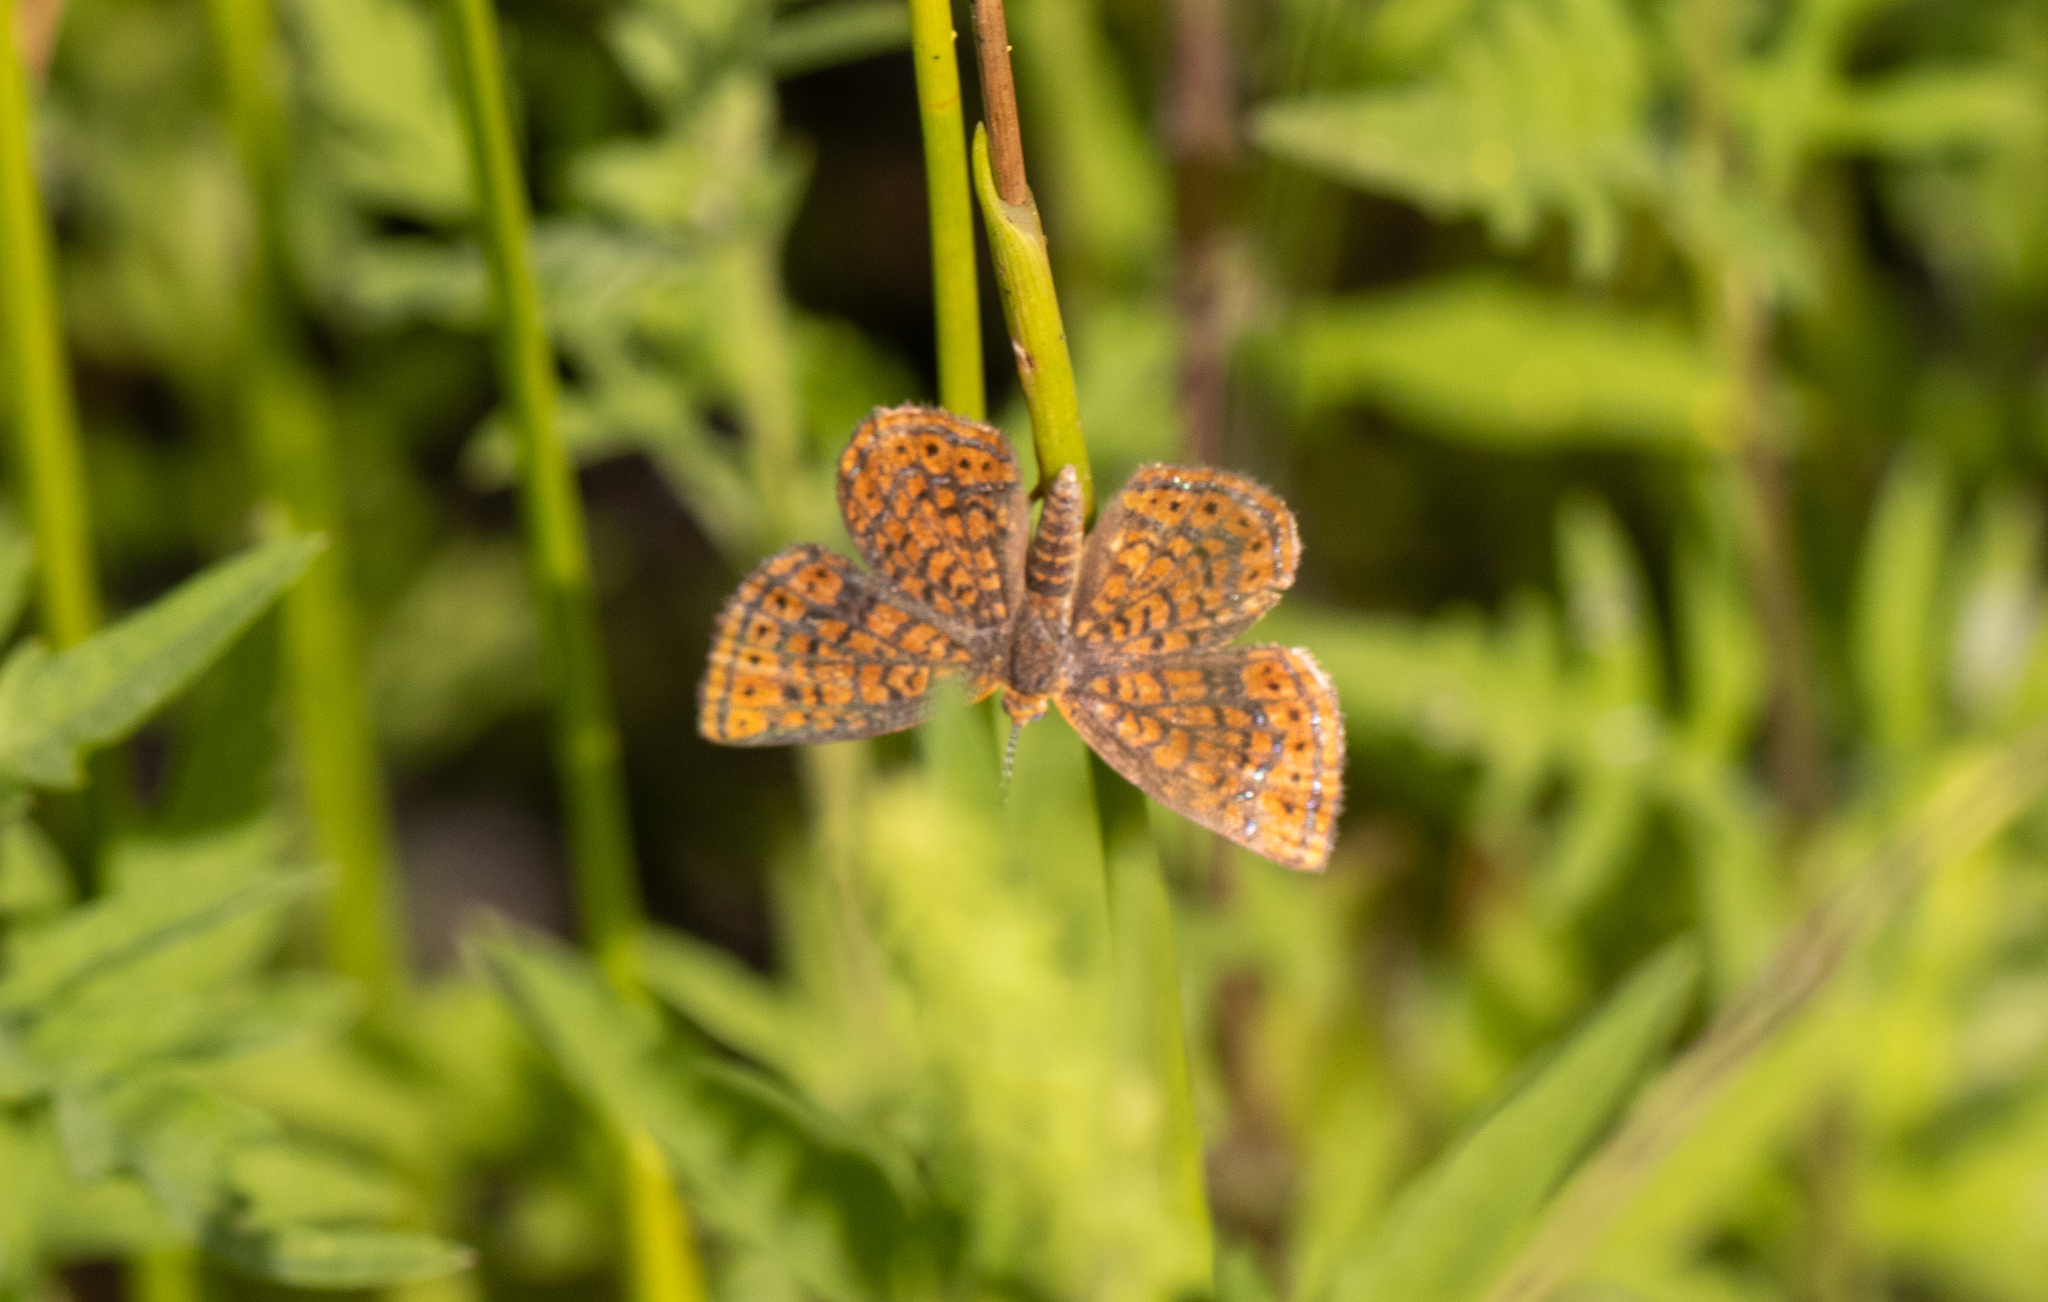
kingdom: Animalia
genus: Calephelis
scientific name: Calephelis virginiensis
